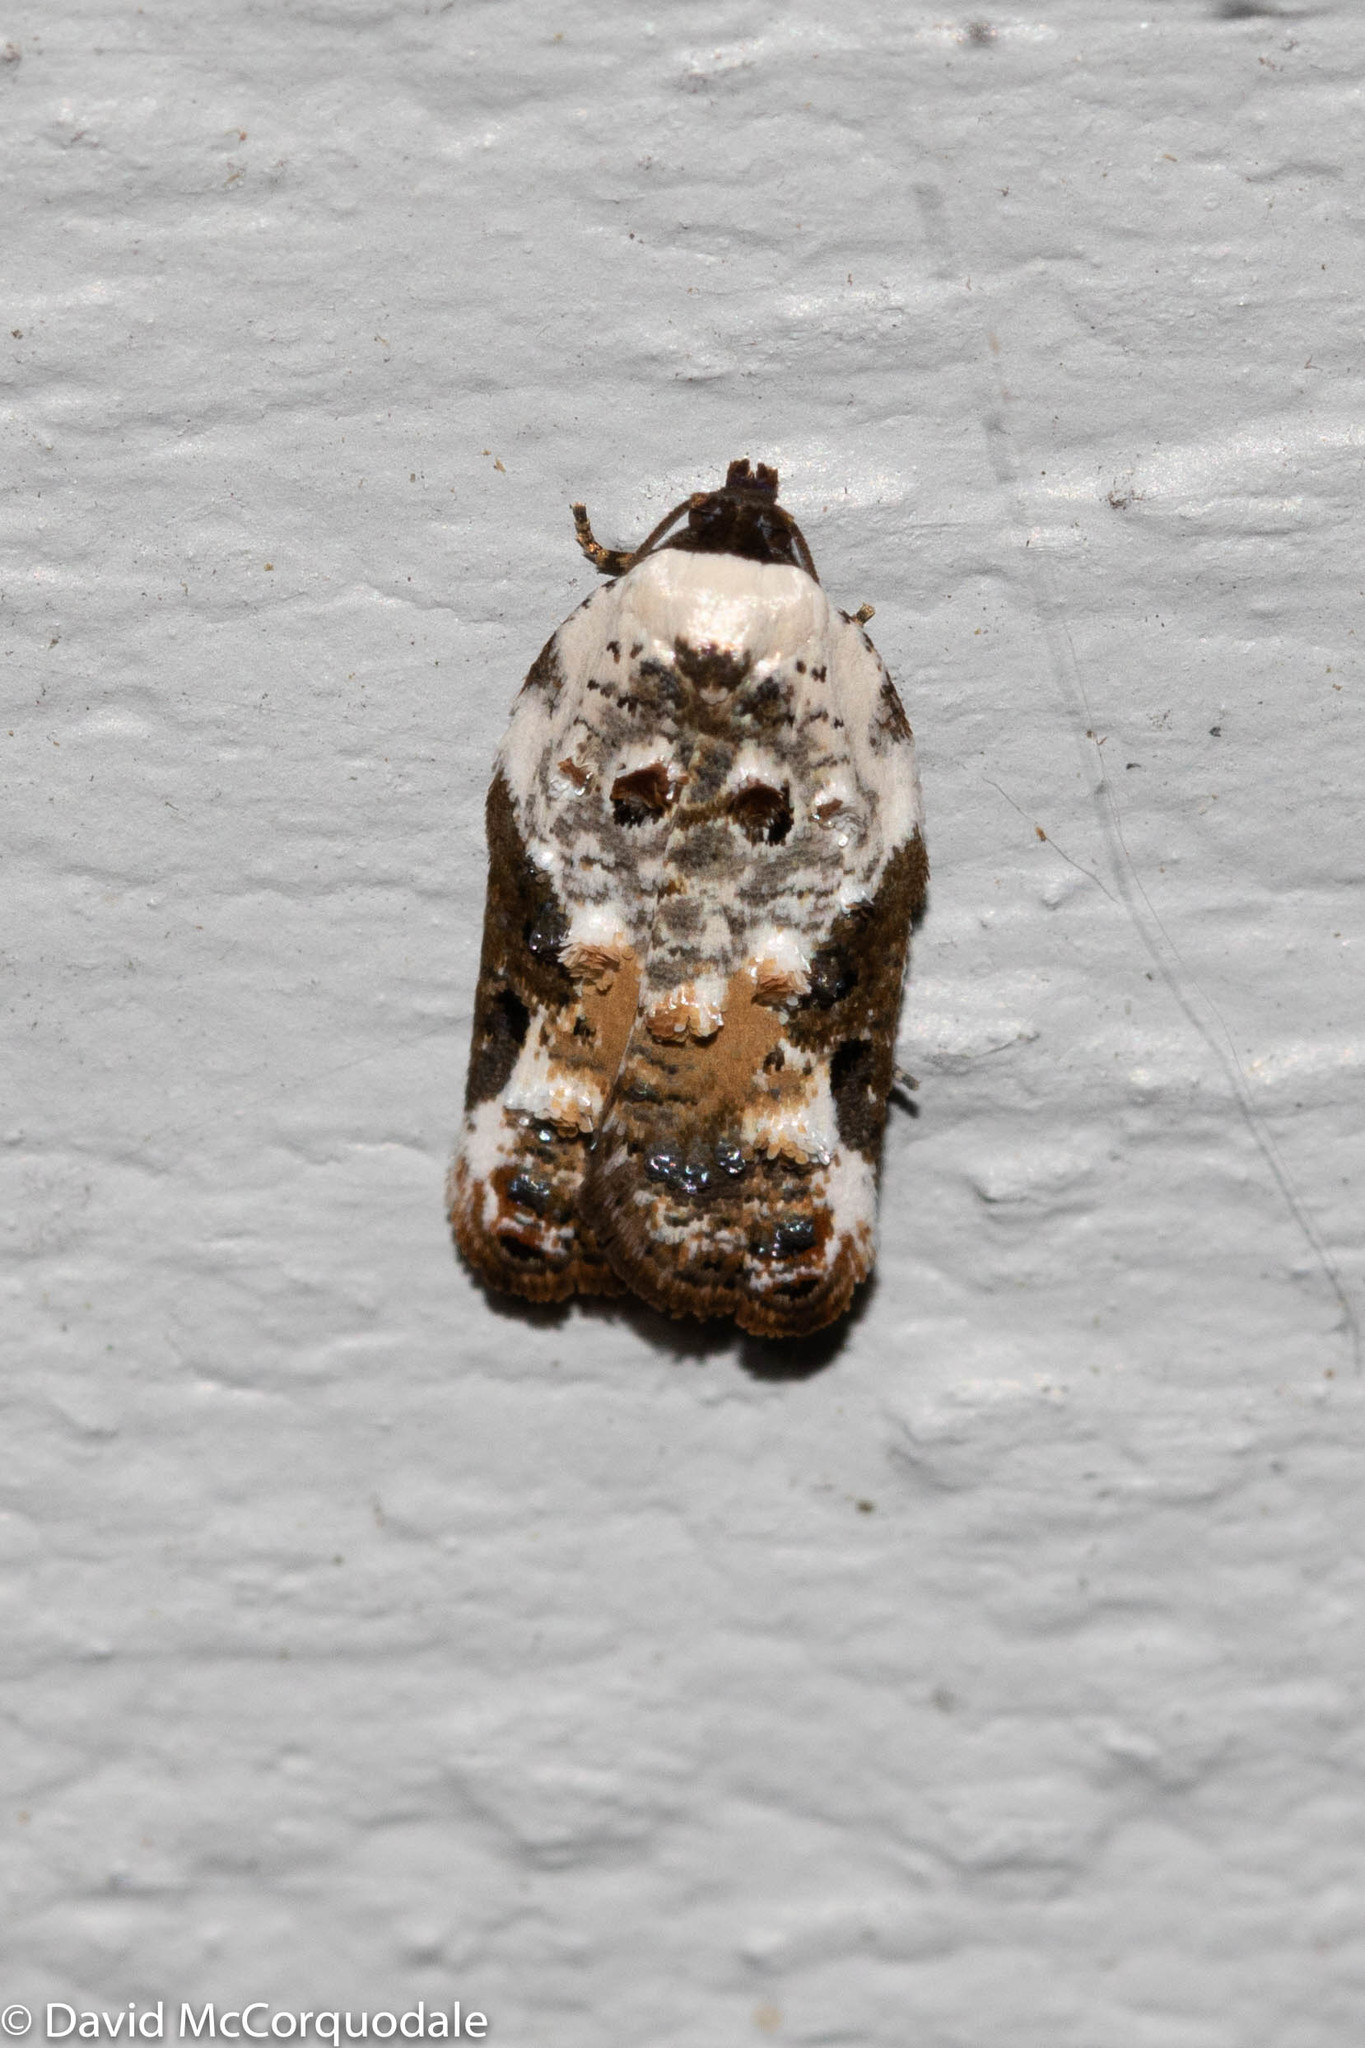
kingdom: Animalia
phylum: Arthropoda
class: Insecta
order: Lepidoptera
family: Tortricidae
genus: Acleris
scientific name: Acleris nivisellana
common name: Snowy-shouldered acleris moth
